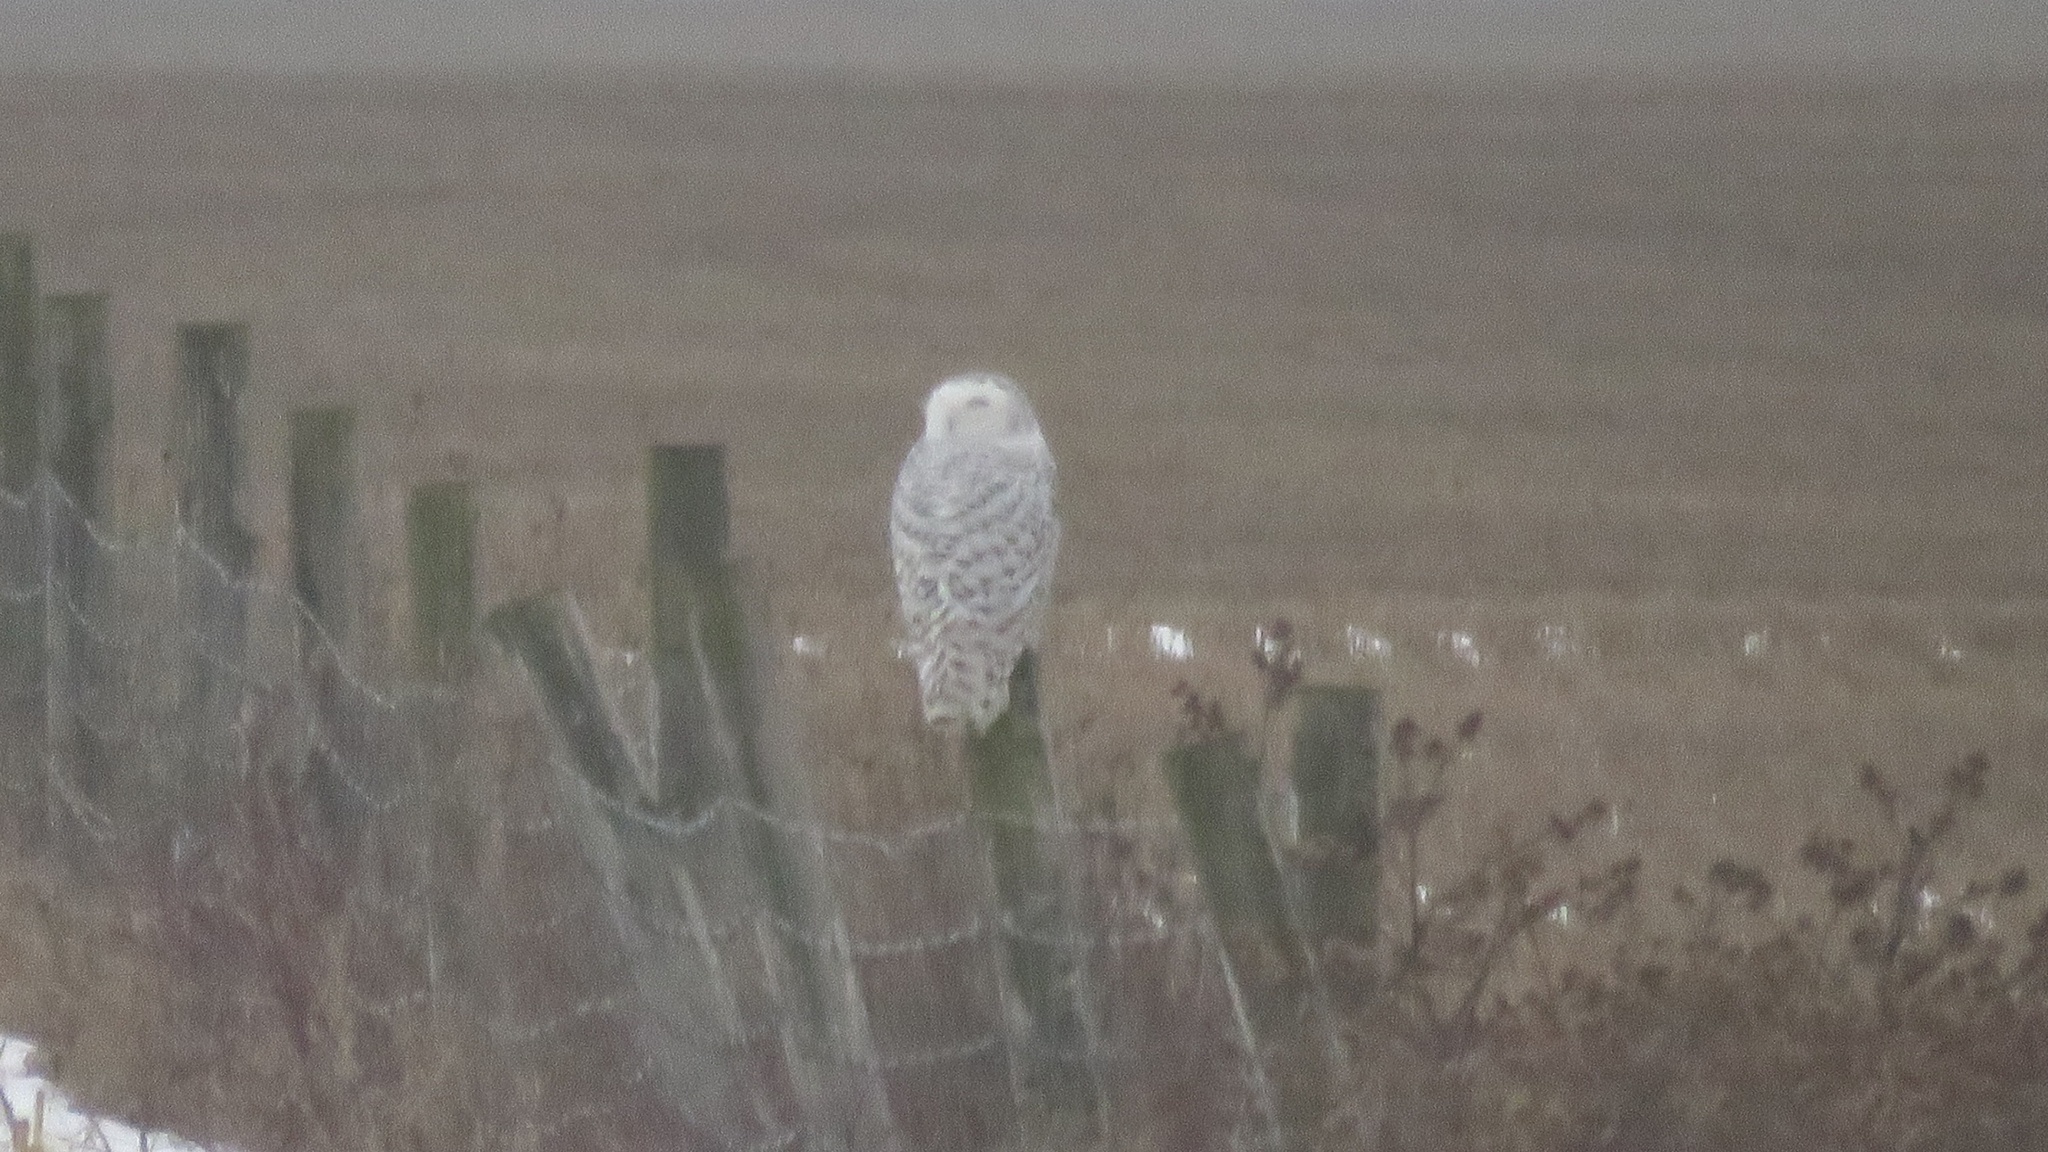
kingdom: Animalia
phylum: Chordata
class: Aves
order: Strigiformes
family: Strigidae
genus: Bubo
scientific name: Bubo scandiacus
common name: Snowy owl
